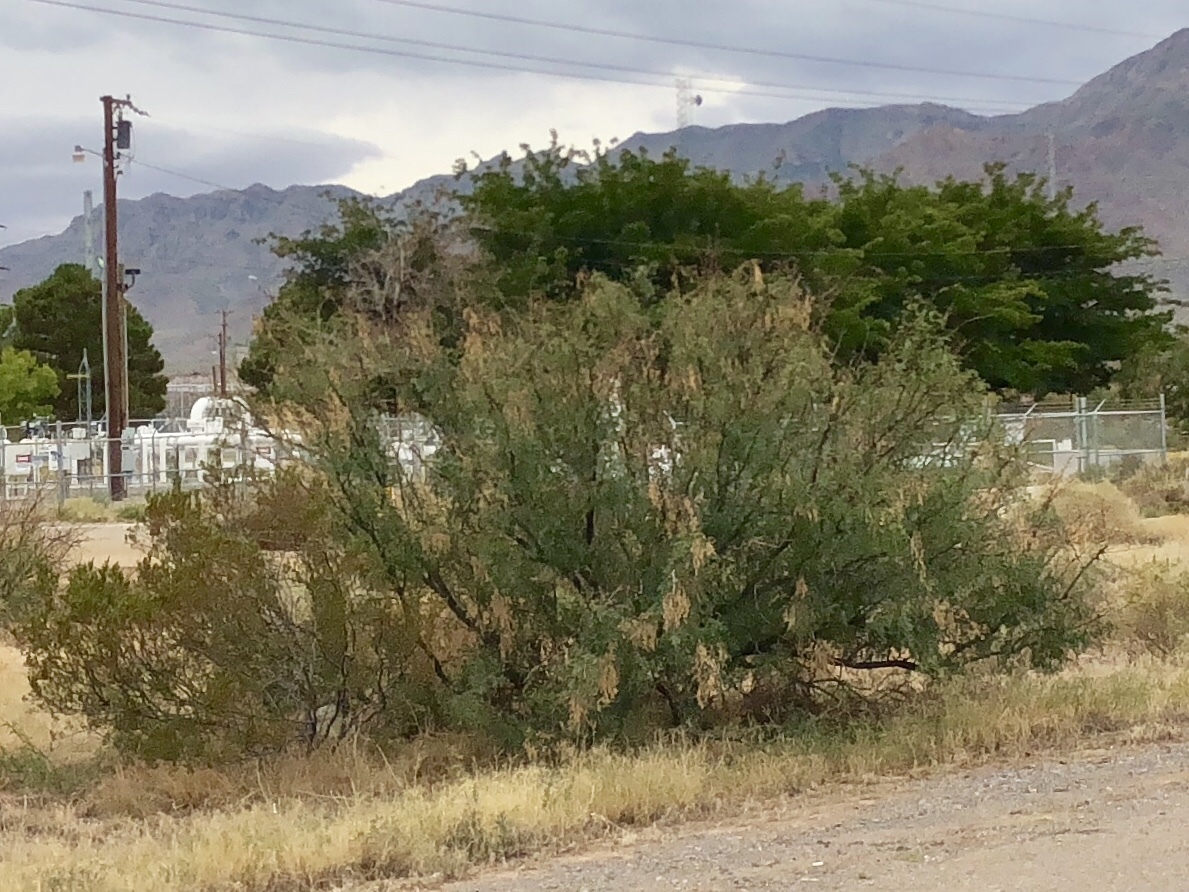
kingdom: Plantae
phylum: Tracheophyta
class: Magnoliopsida
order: Fabales
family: Fabaceae
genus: Prosopis
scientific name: Prosopis glandulosa
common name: Honey mesquite
